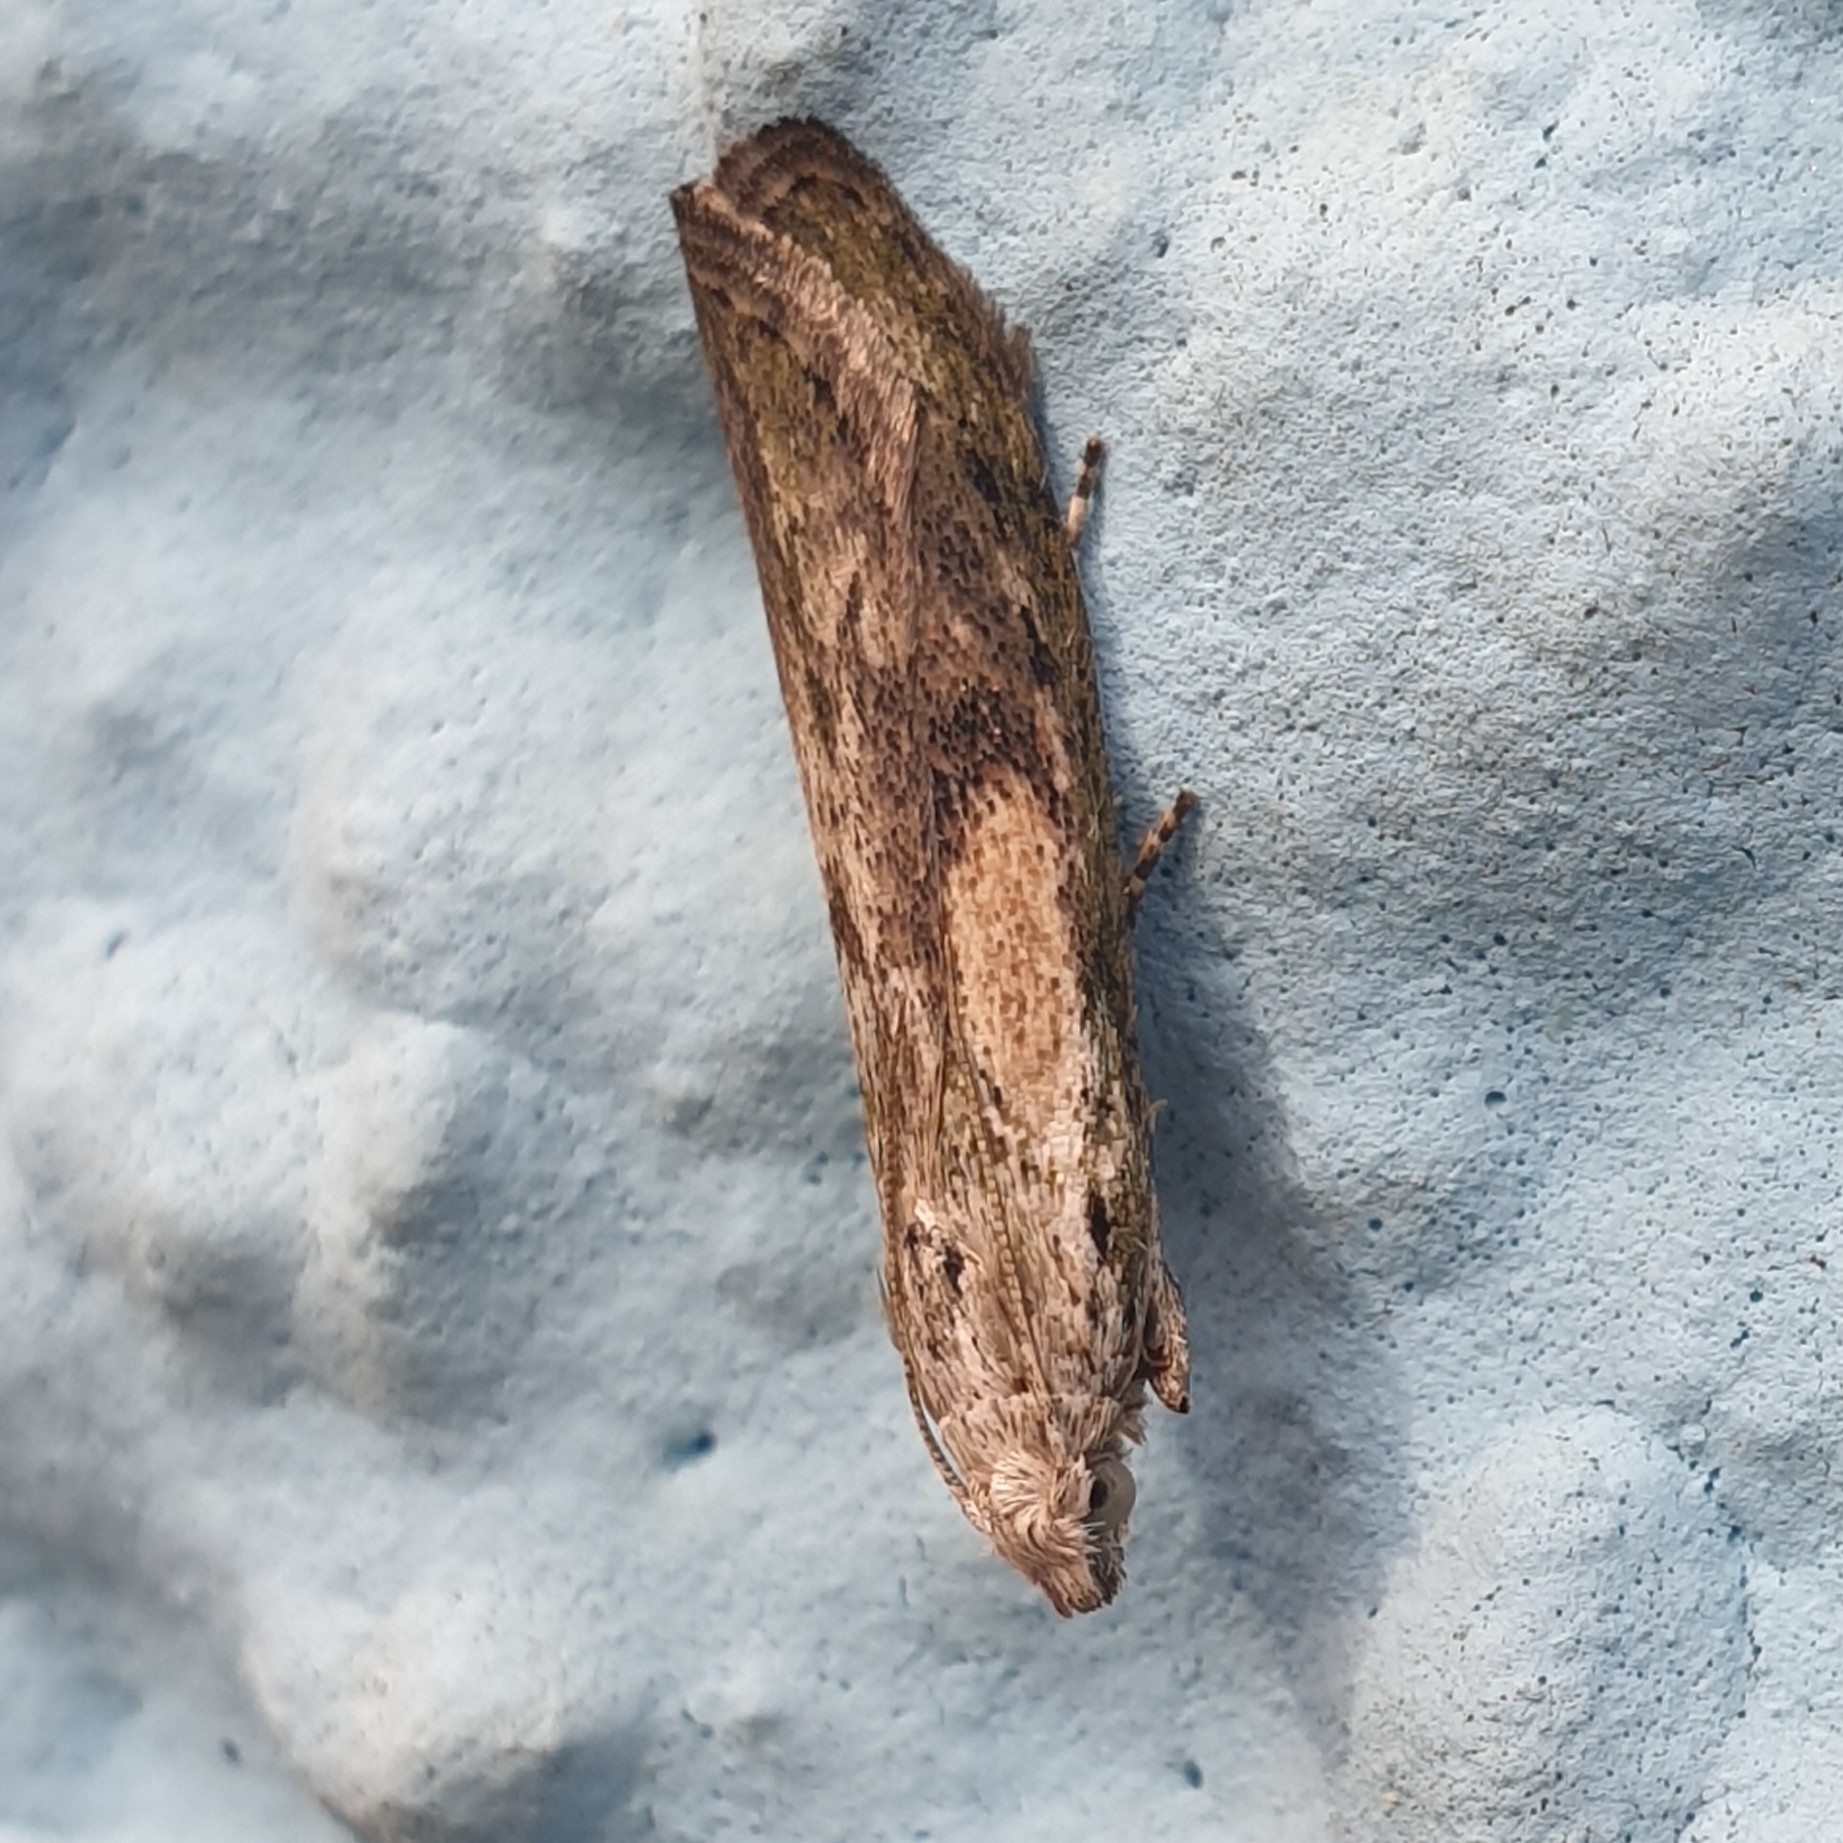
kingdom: Animalia
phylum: Arthropoda
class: Insecta
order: Lepidoptera
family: Pyralidae
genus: Aphomia
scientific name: Aphomia sociella
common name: Bee moth
